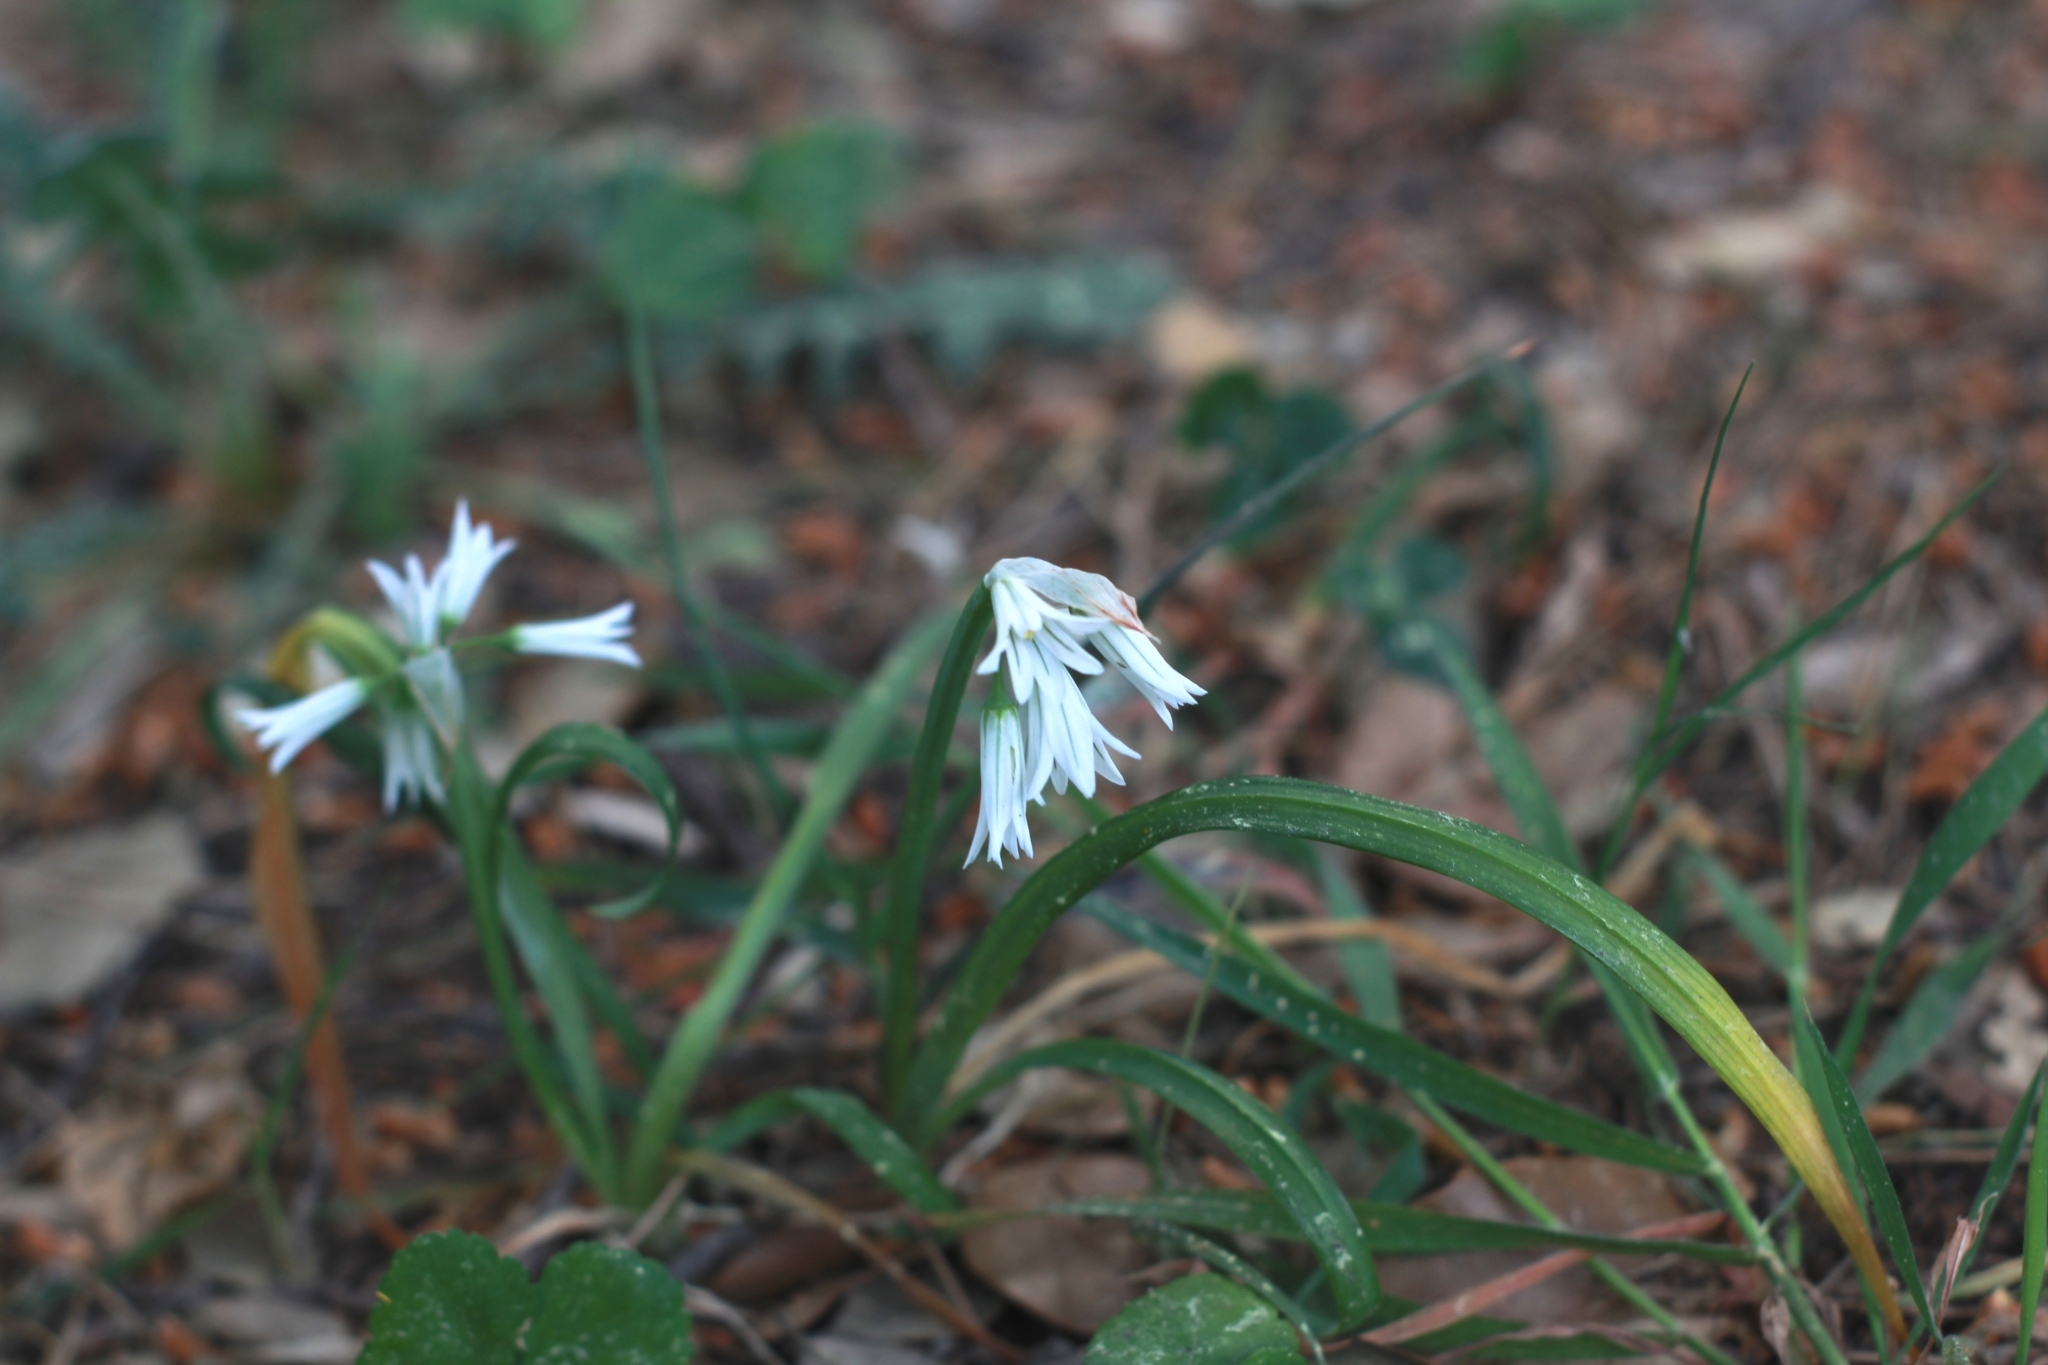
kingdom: Plantae
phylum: Tracheophyta
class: Liliopsida
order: Asparagales
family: Amaryllidaceae
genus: Allium
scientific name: Allium triquetrum
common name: Three-cornered garlic
